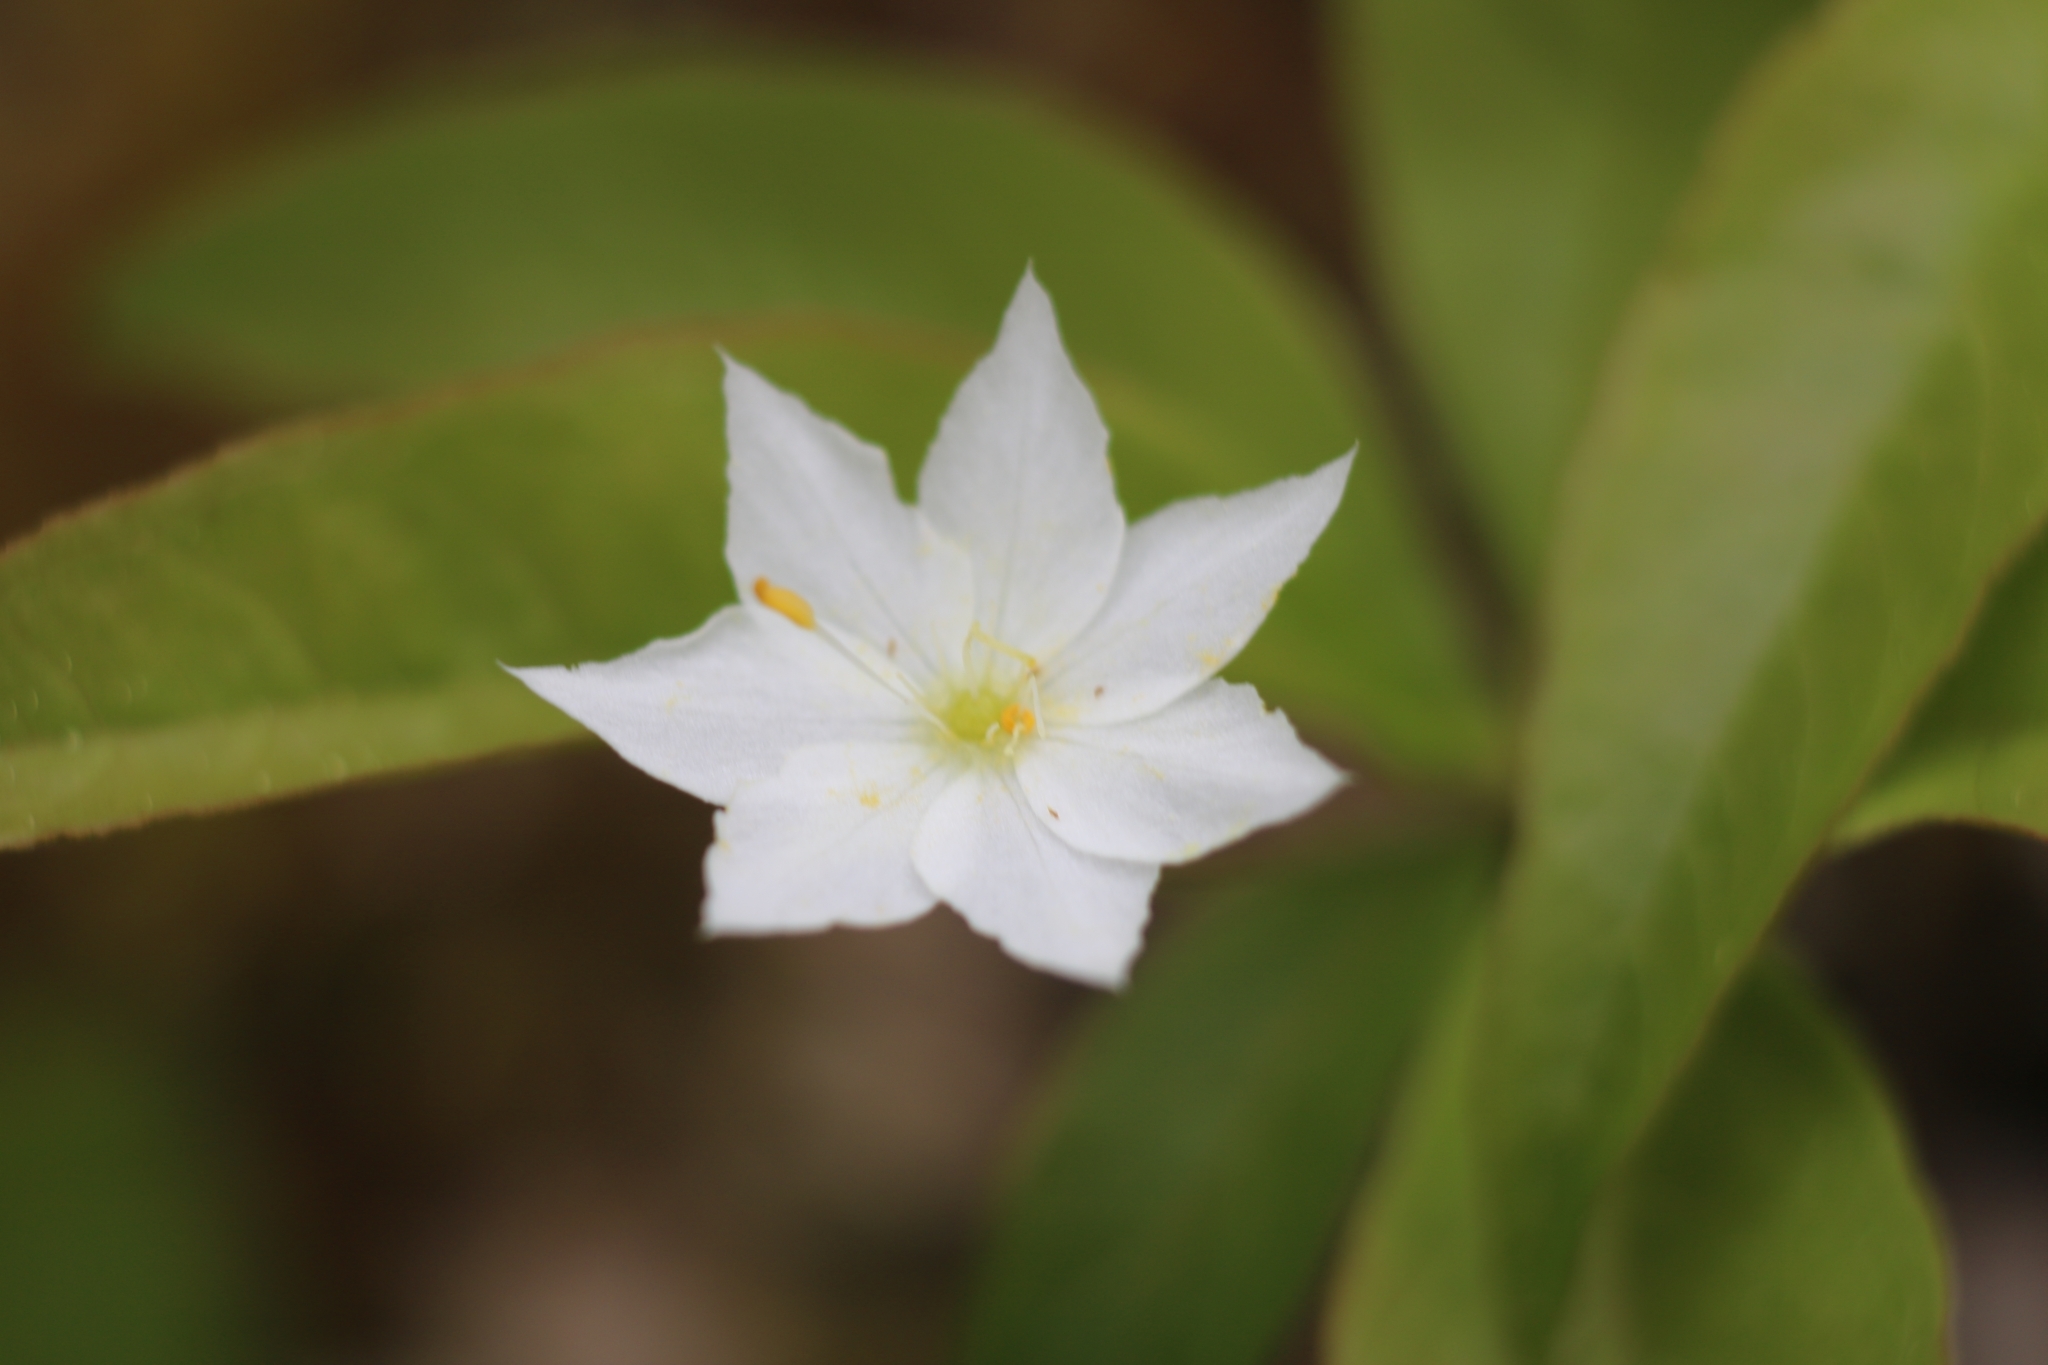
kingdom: Plantae
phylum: Tracheophyta
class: Magnoliopsida
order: Ericales
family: Primulaceae
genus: Lysimachia
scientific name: Lysimachia borealis
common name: American starflower
